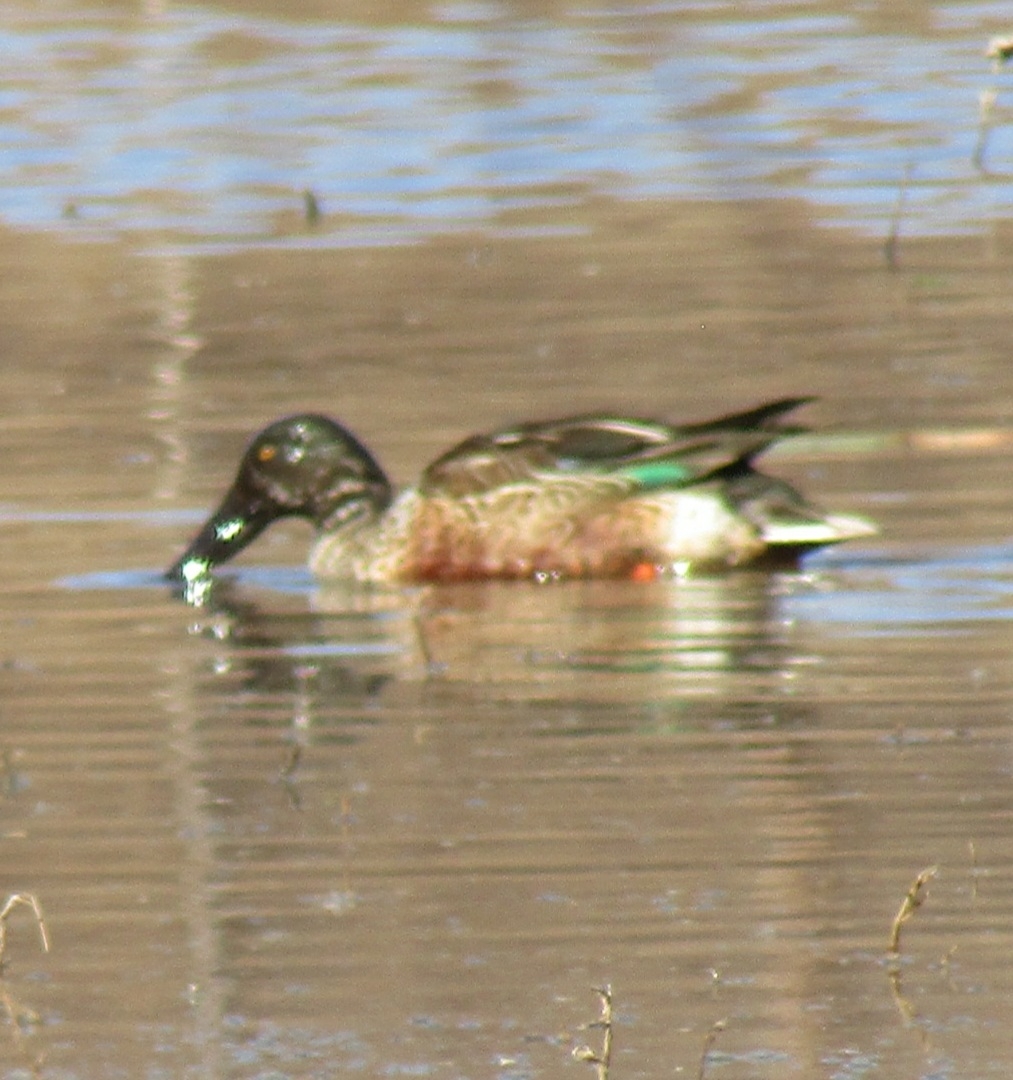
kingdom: Animalia
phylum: Chordata
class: Aves
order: Anseriformes
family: Anatidae
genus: Spatula
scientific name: Spatula clypeata
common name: Northern shoveler
